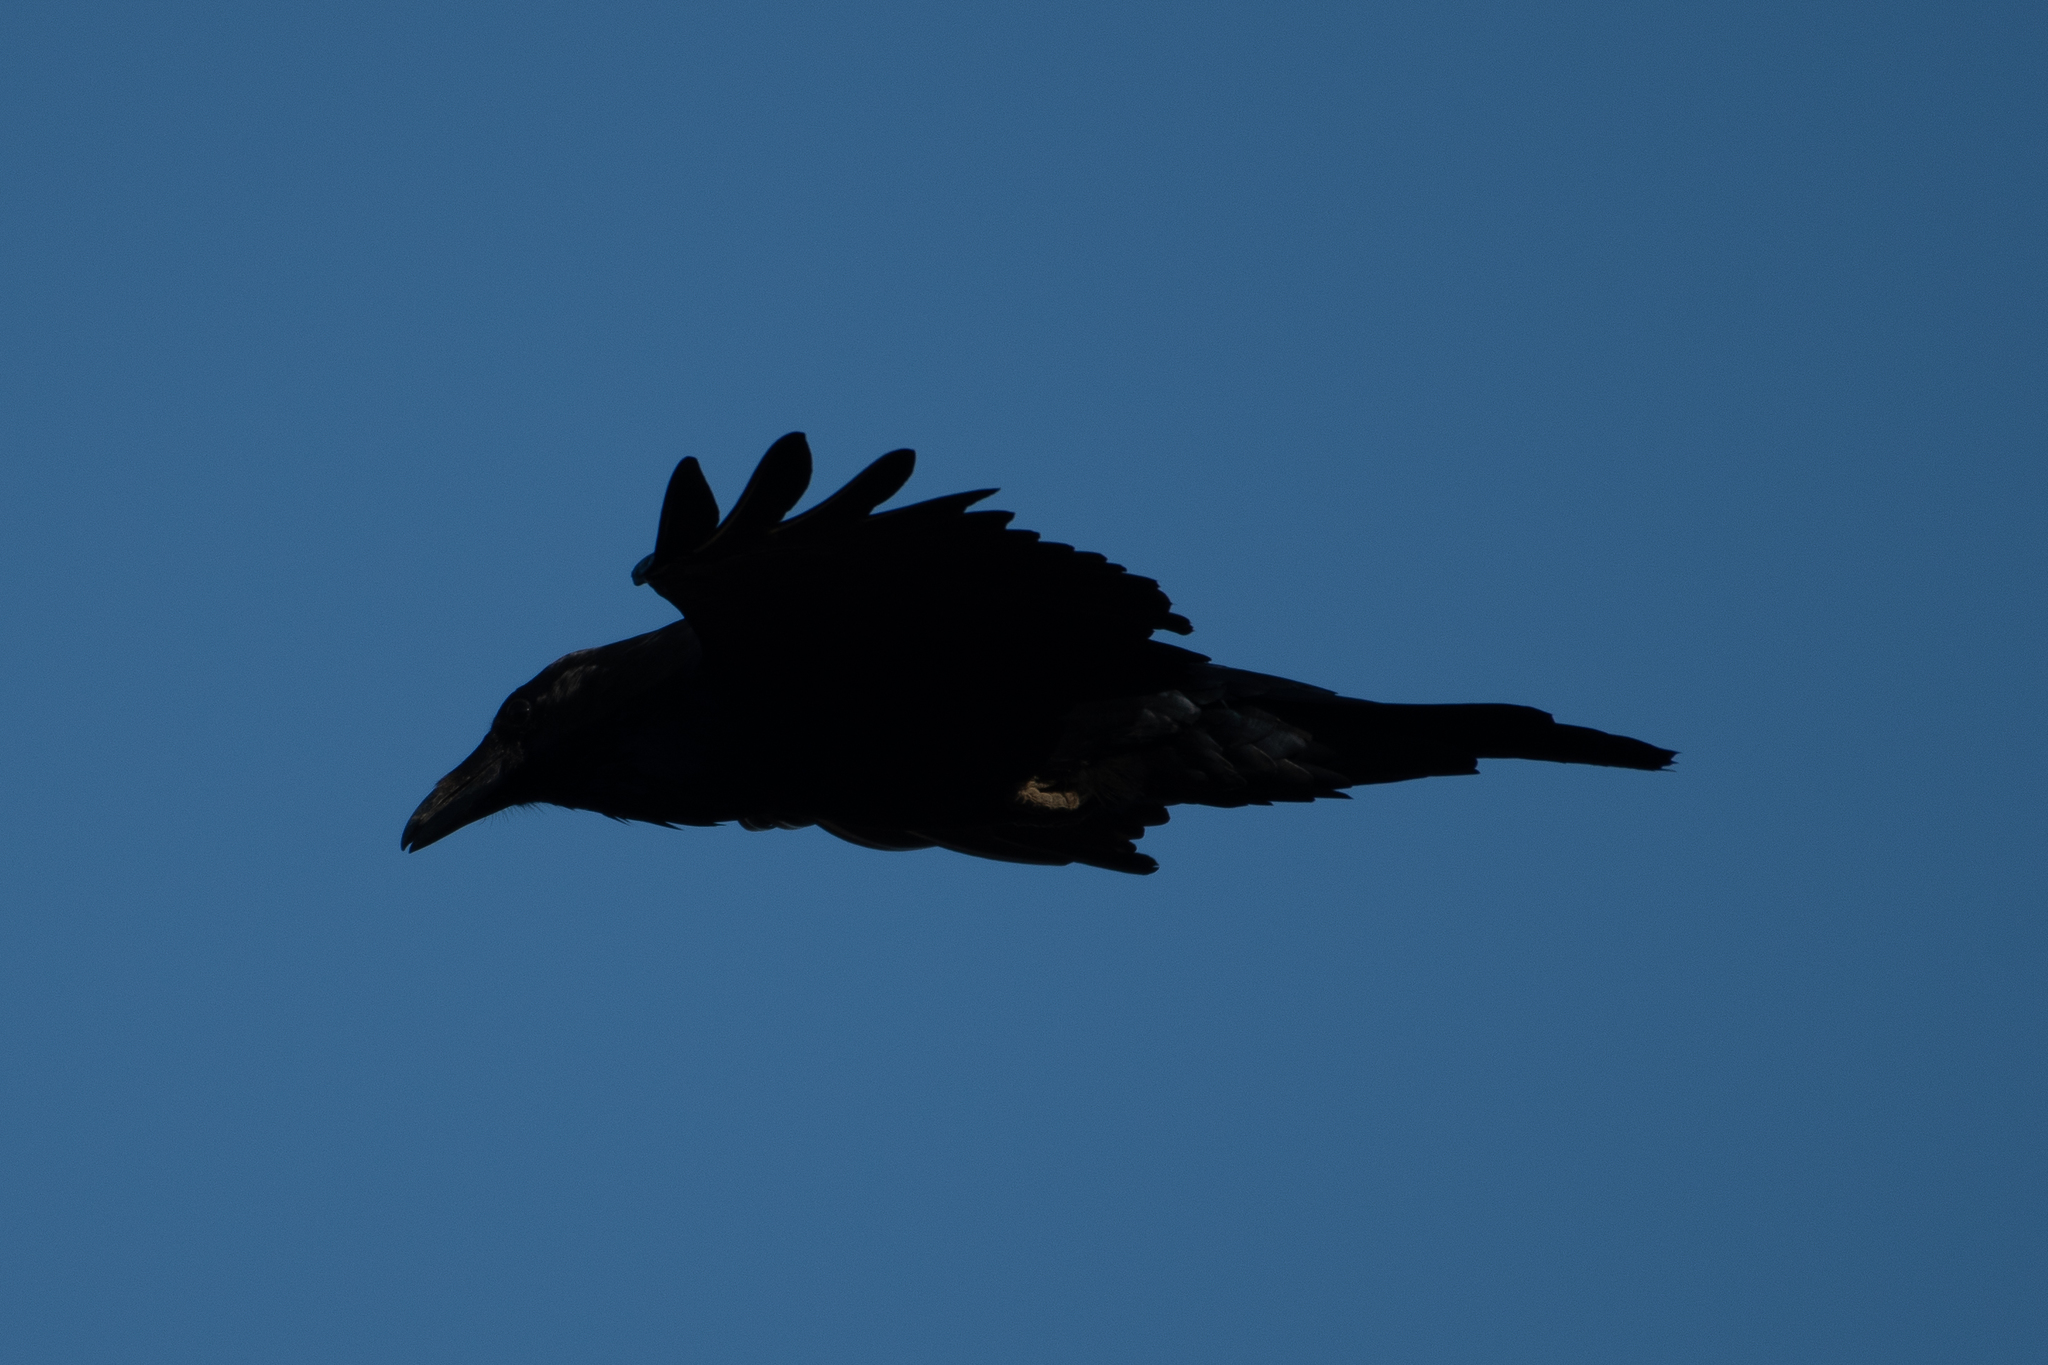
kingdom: Animalia
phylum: Chordata
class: Aves
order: Passeriformes
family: Corvidae
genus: Corvus
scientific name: Corvus corax
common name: Common raven
